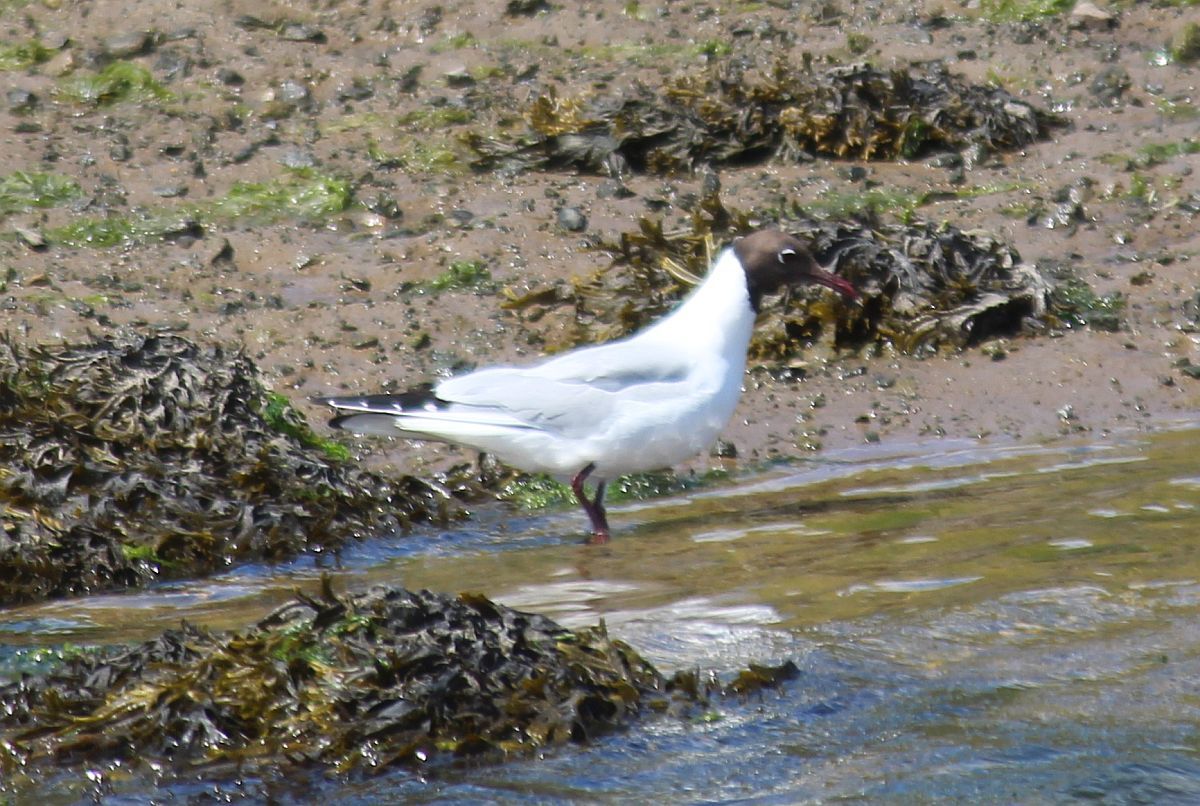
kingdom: Animalia
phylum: Chordata
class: Aves
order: Charadriiformes
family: Laridae
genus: Chroicocephalus
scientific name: Chroicocephalus ridibundus
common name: Black-headed gull
